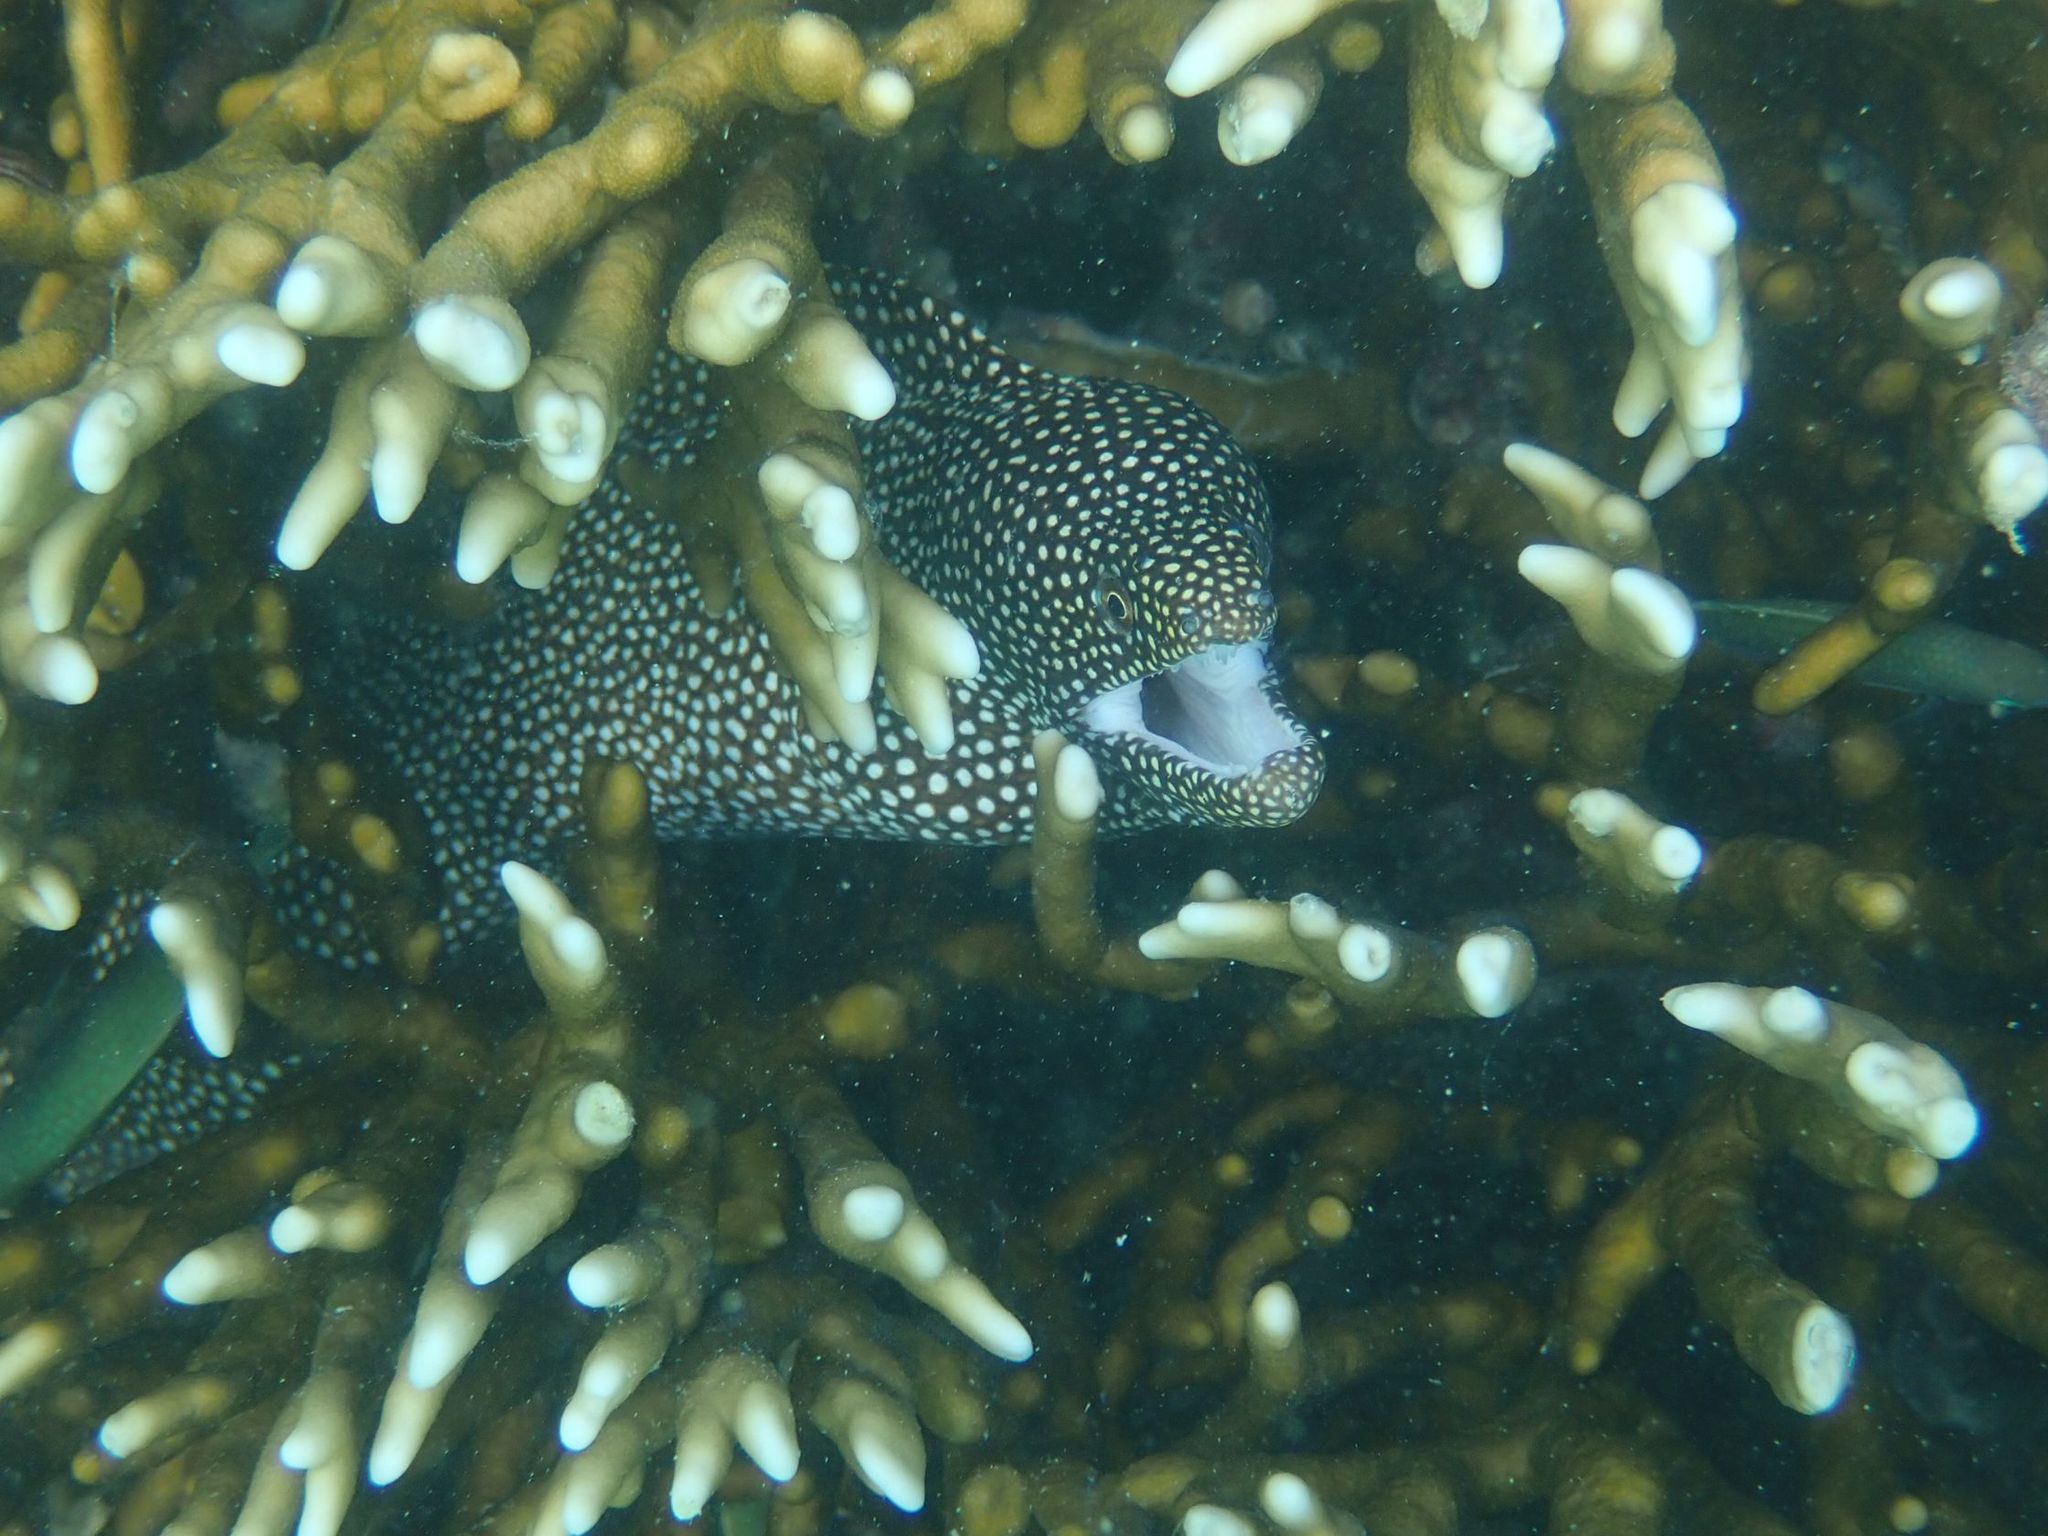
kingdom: Animalia
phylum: Chordata
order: Anguilliformes
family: Muraenidae
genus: Gymnothorax
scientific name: Gymnothorax meleagris
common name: Guineafowl moray
